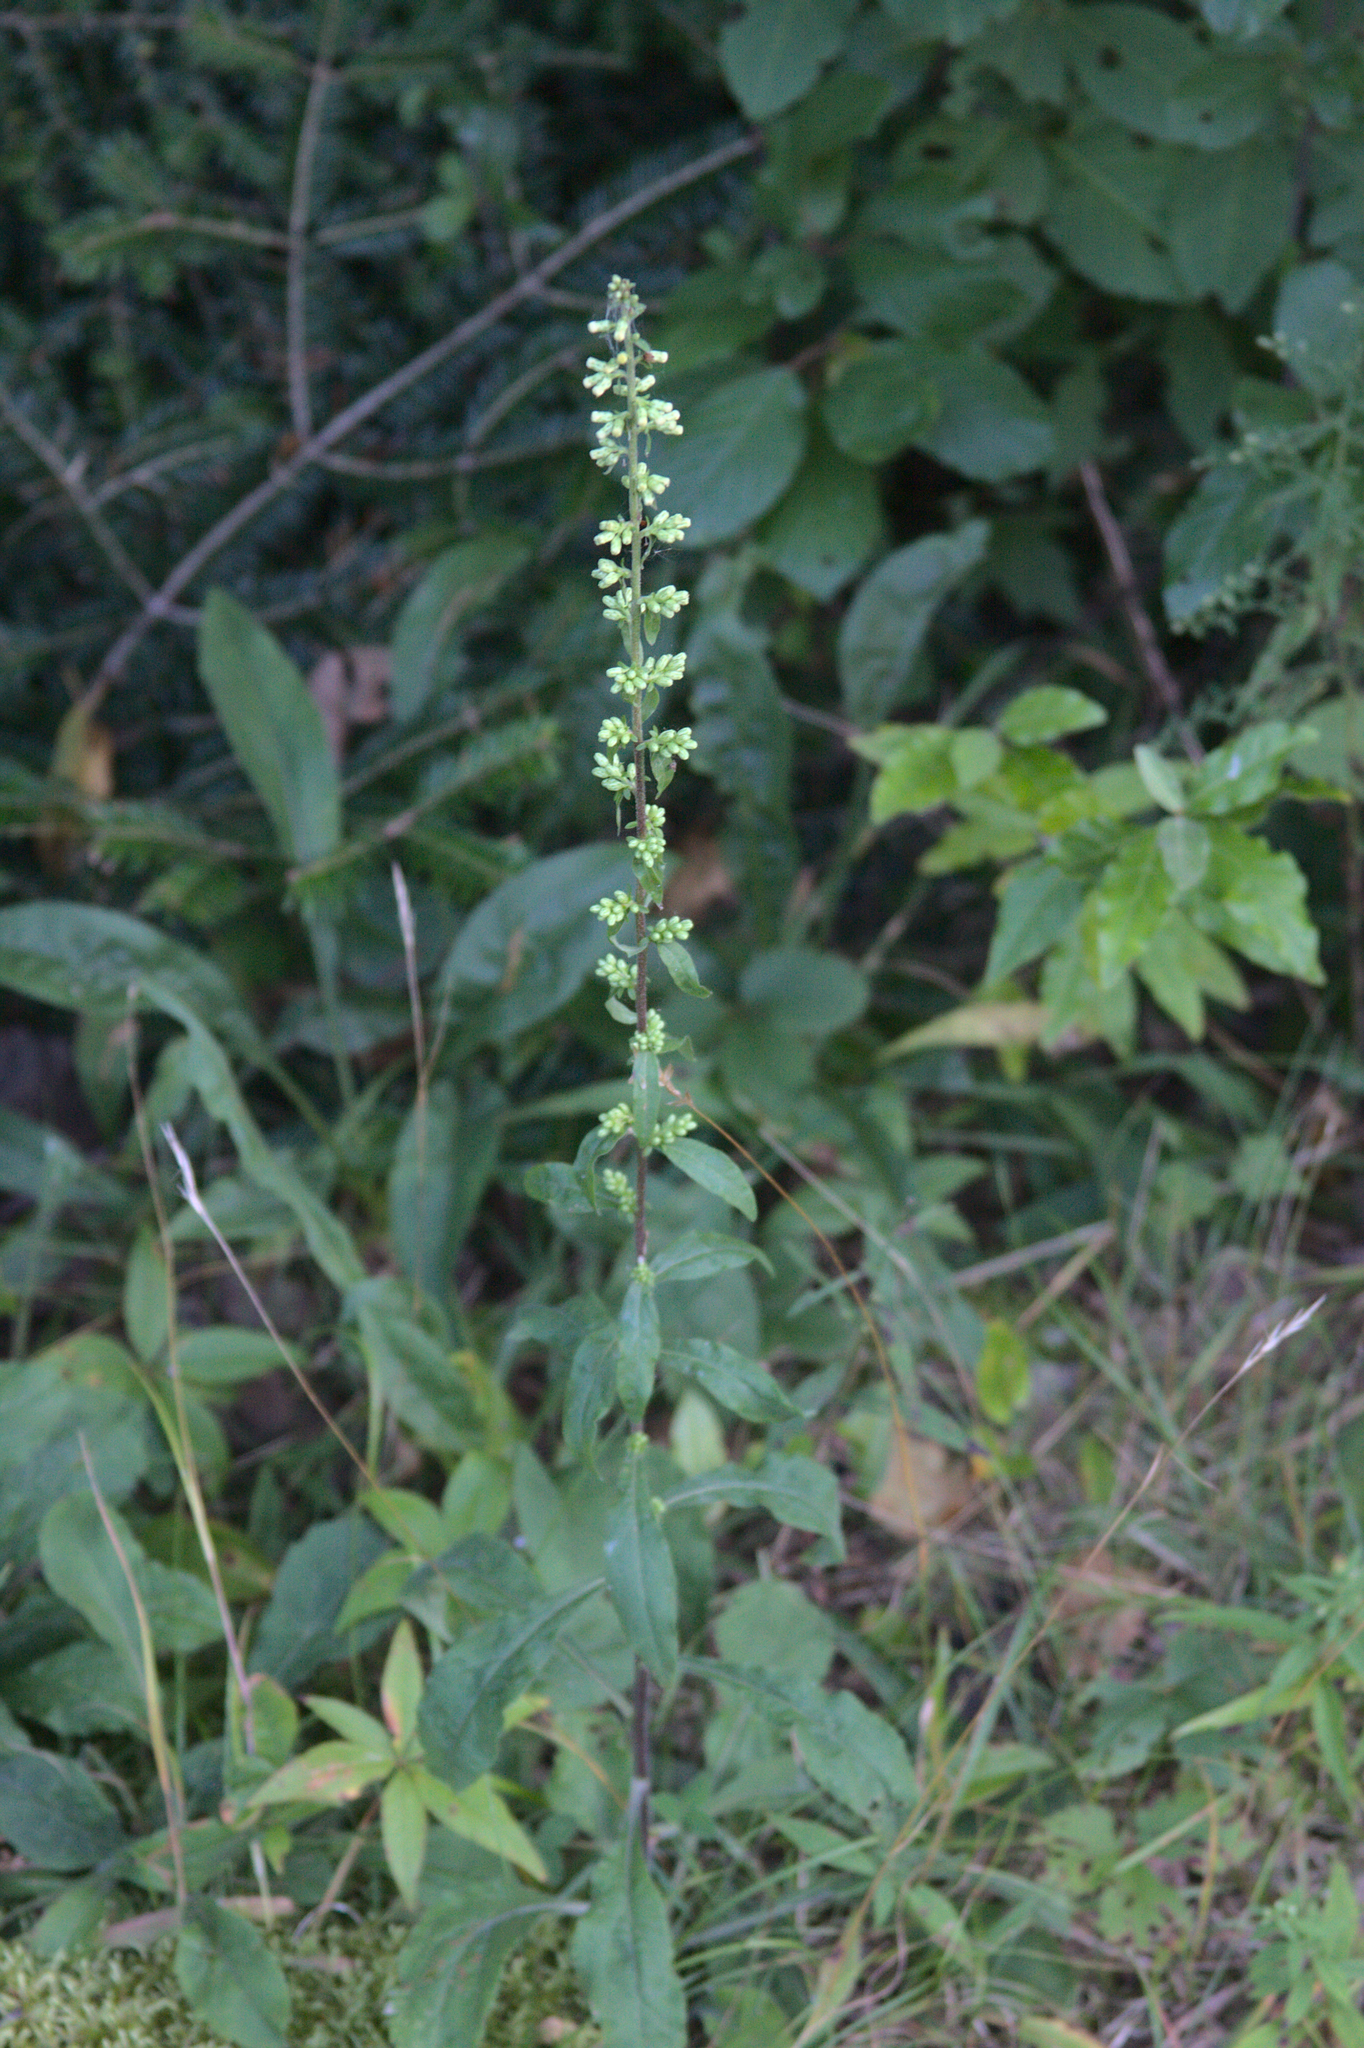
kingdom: Plantae
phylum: Tracheophyta
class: Magnoliopsida
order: Asterales
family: Asteraceae
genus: Solidago
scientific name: Solidago bicolor
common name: Silverrod
